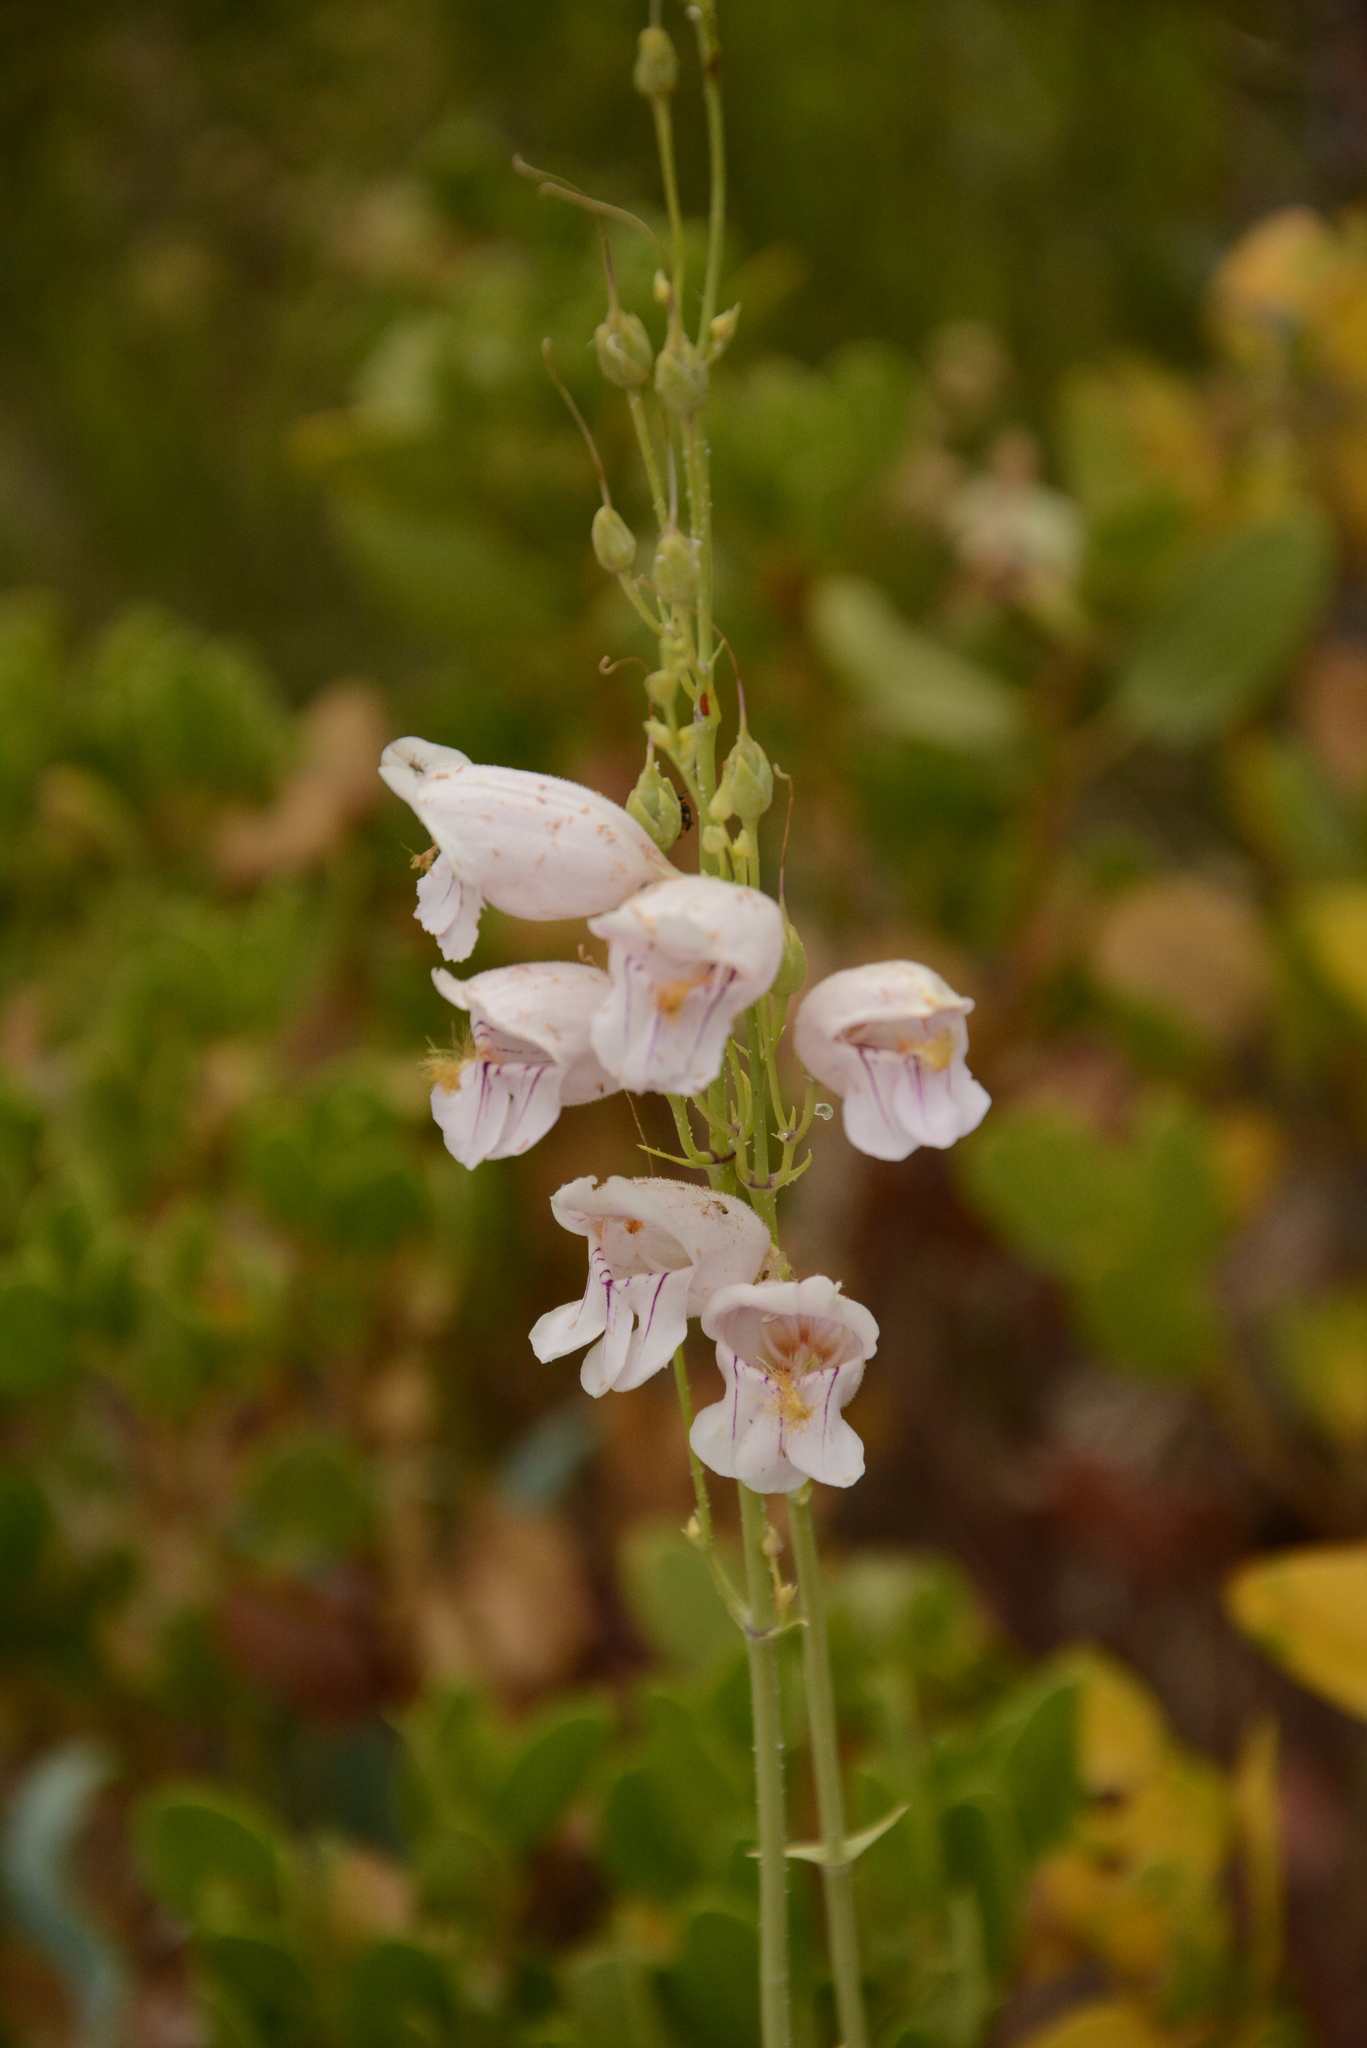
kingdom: Plantae
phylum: Tracheophyta
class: Magnoliopsida
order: Lamiales
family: Plantaginaceae
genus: Penstemon
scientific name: Penstemon palmeri
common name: Palmer penstemon
